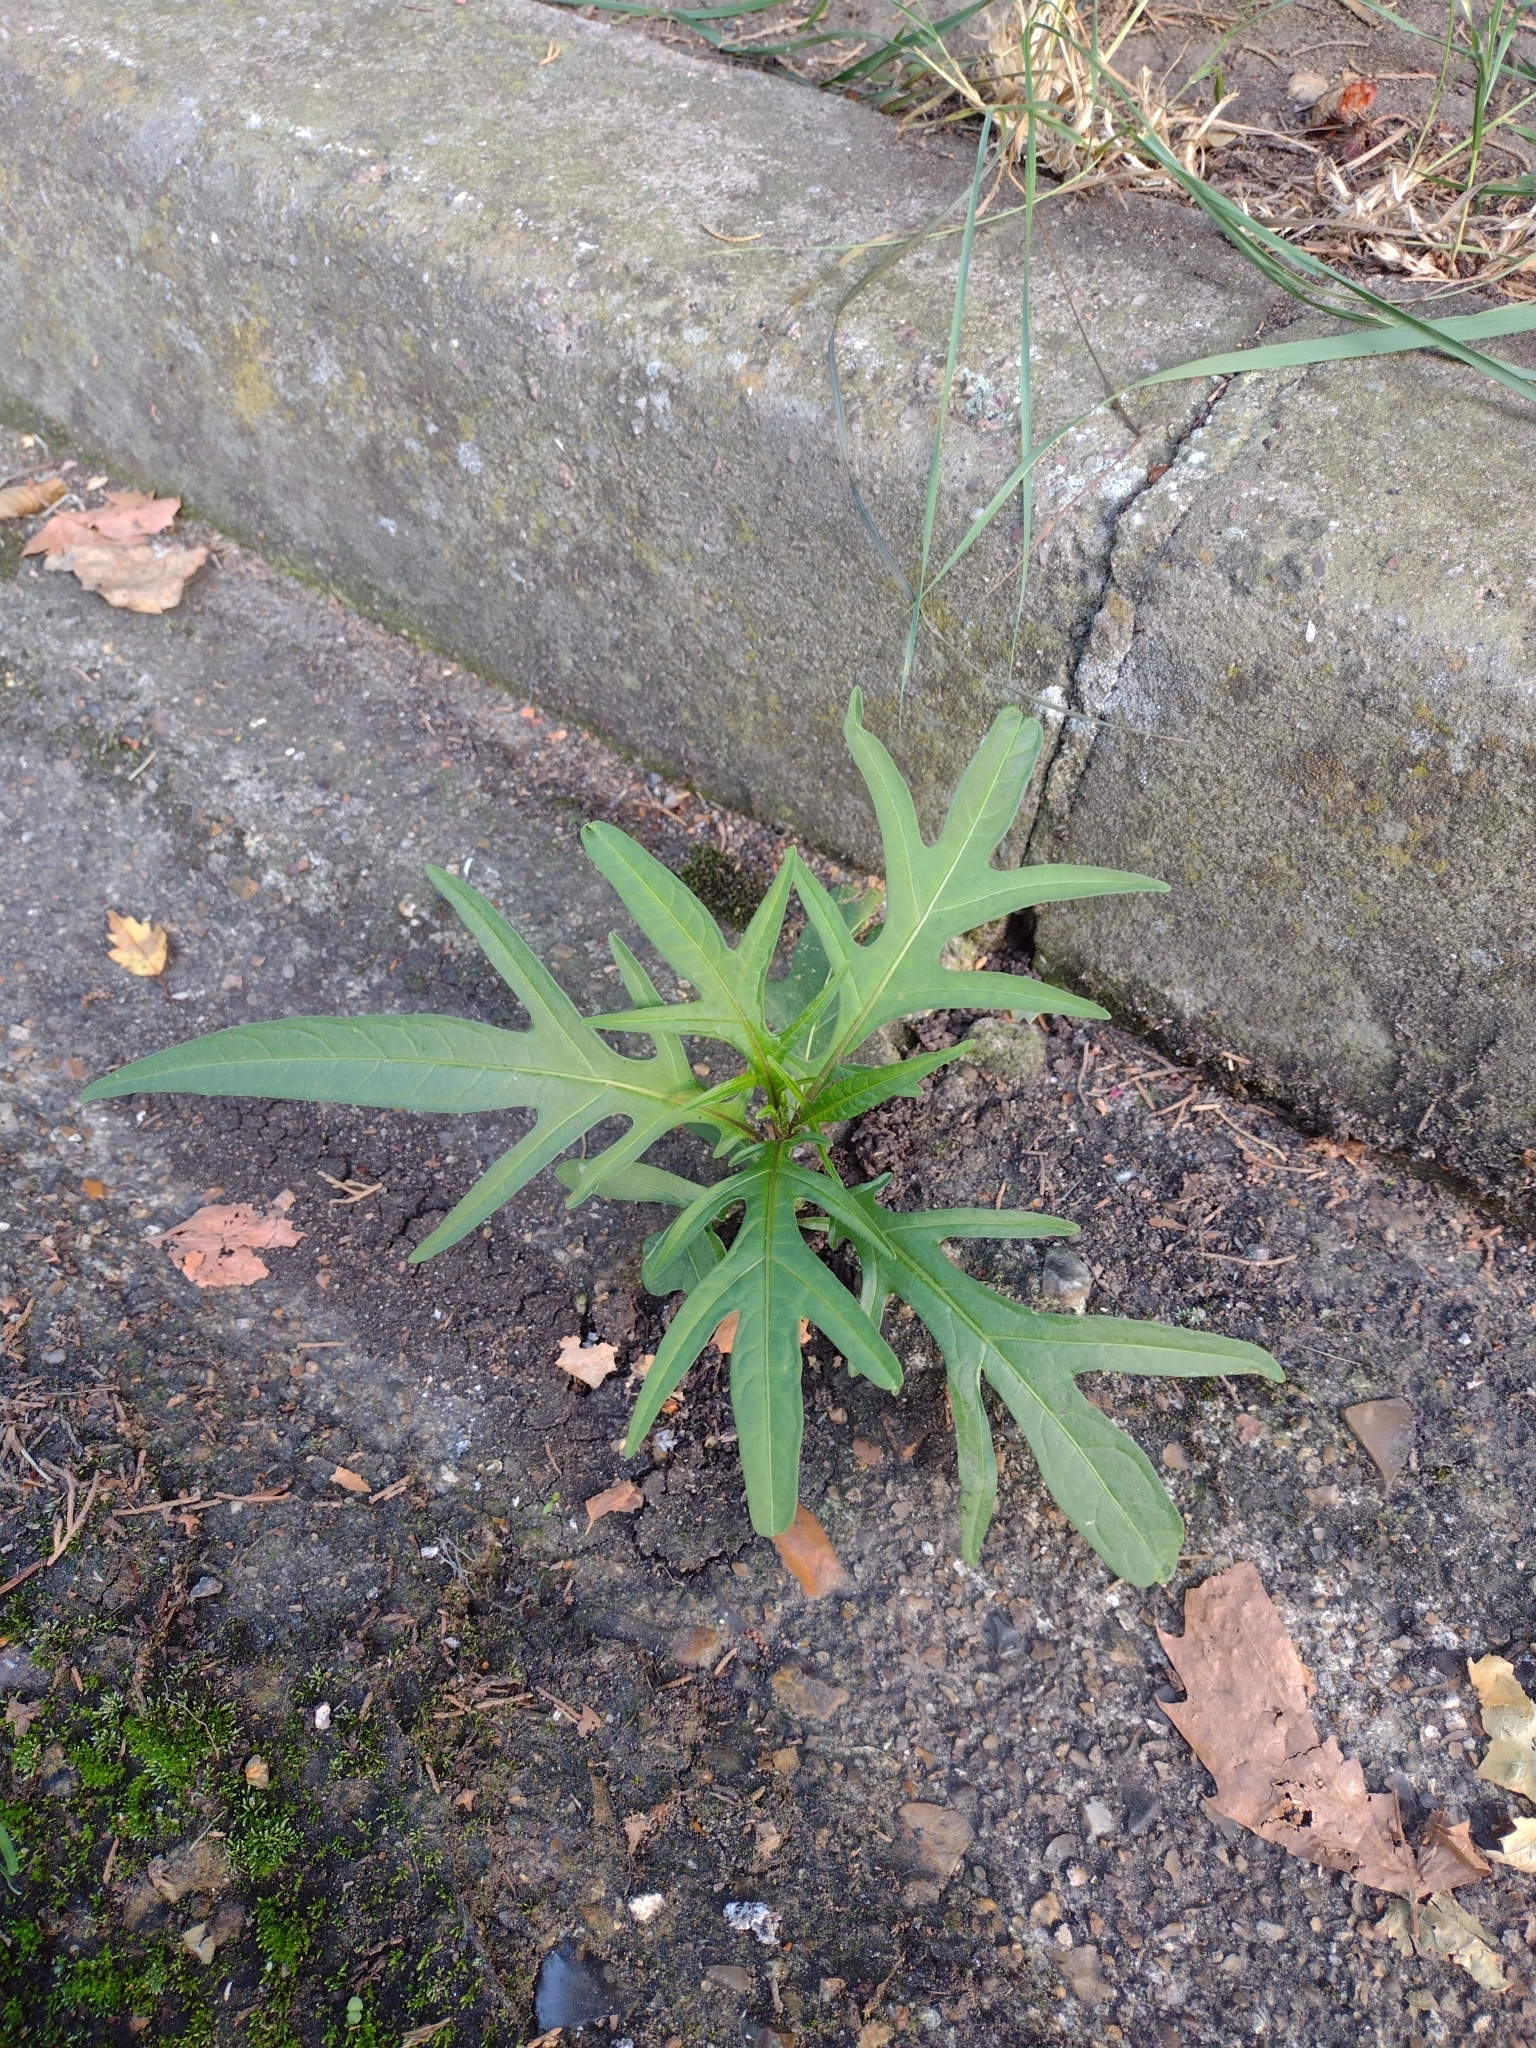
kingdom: Plantae
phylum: Tracheophyta
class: Magnoliopsida
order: Solanales
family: Solanaceae
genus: Solanum
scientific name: Solanum laciniatum
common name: Kangaroo-apple
